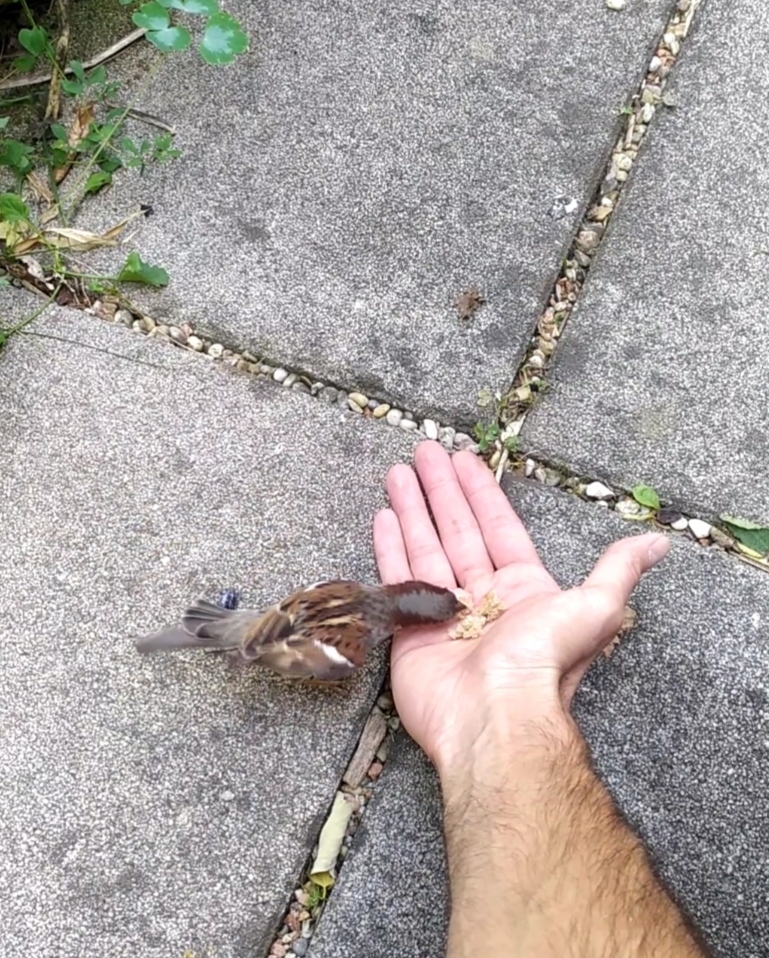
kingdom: Animalia
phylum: Chordata
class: Aves
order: Passeriformes
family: Passeridae
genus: Passer
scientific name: Passer domesticus
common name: House sparrow
